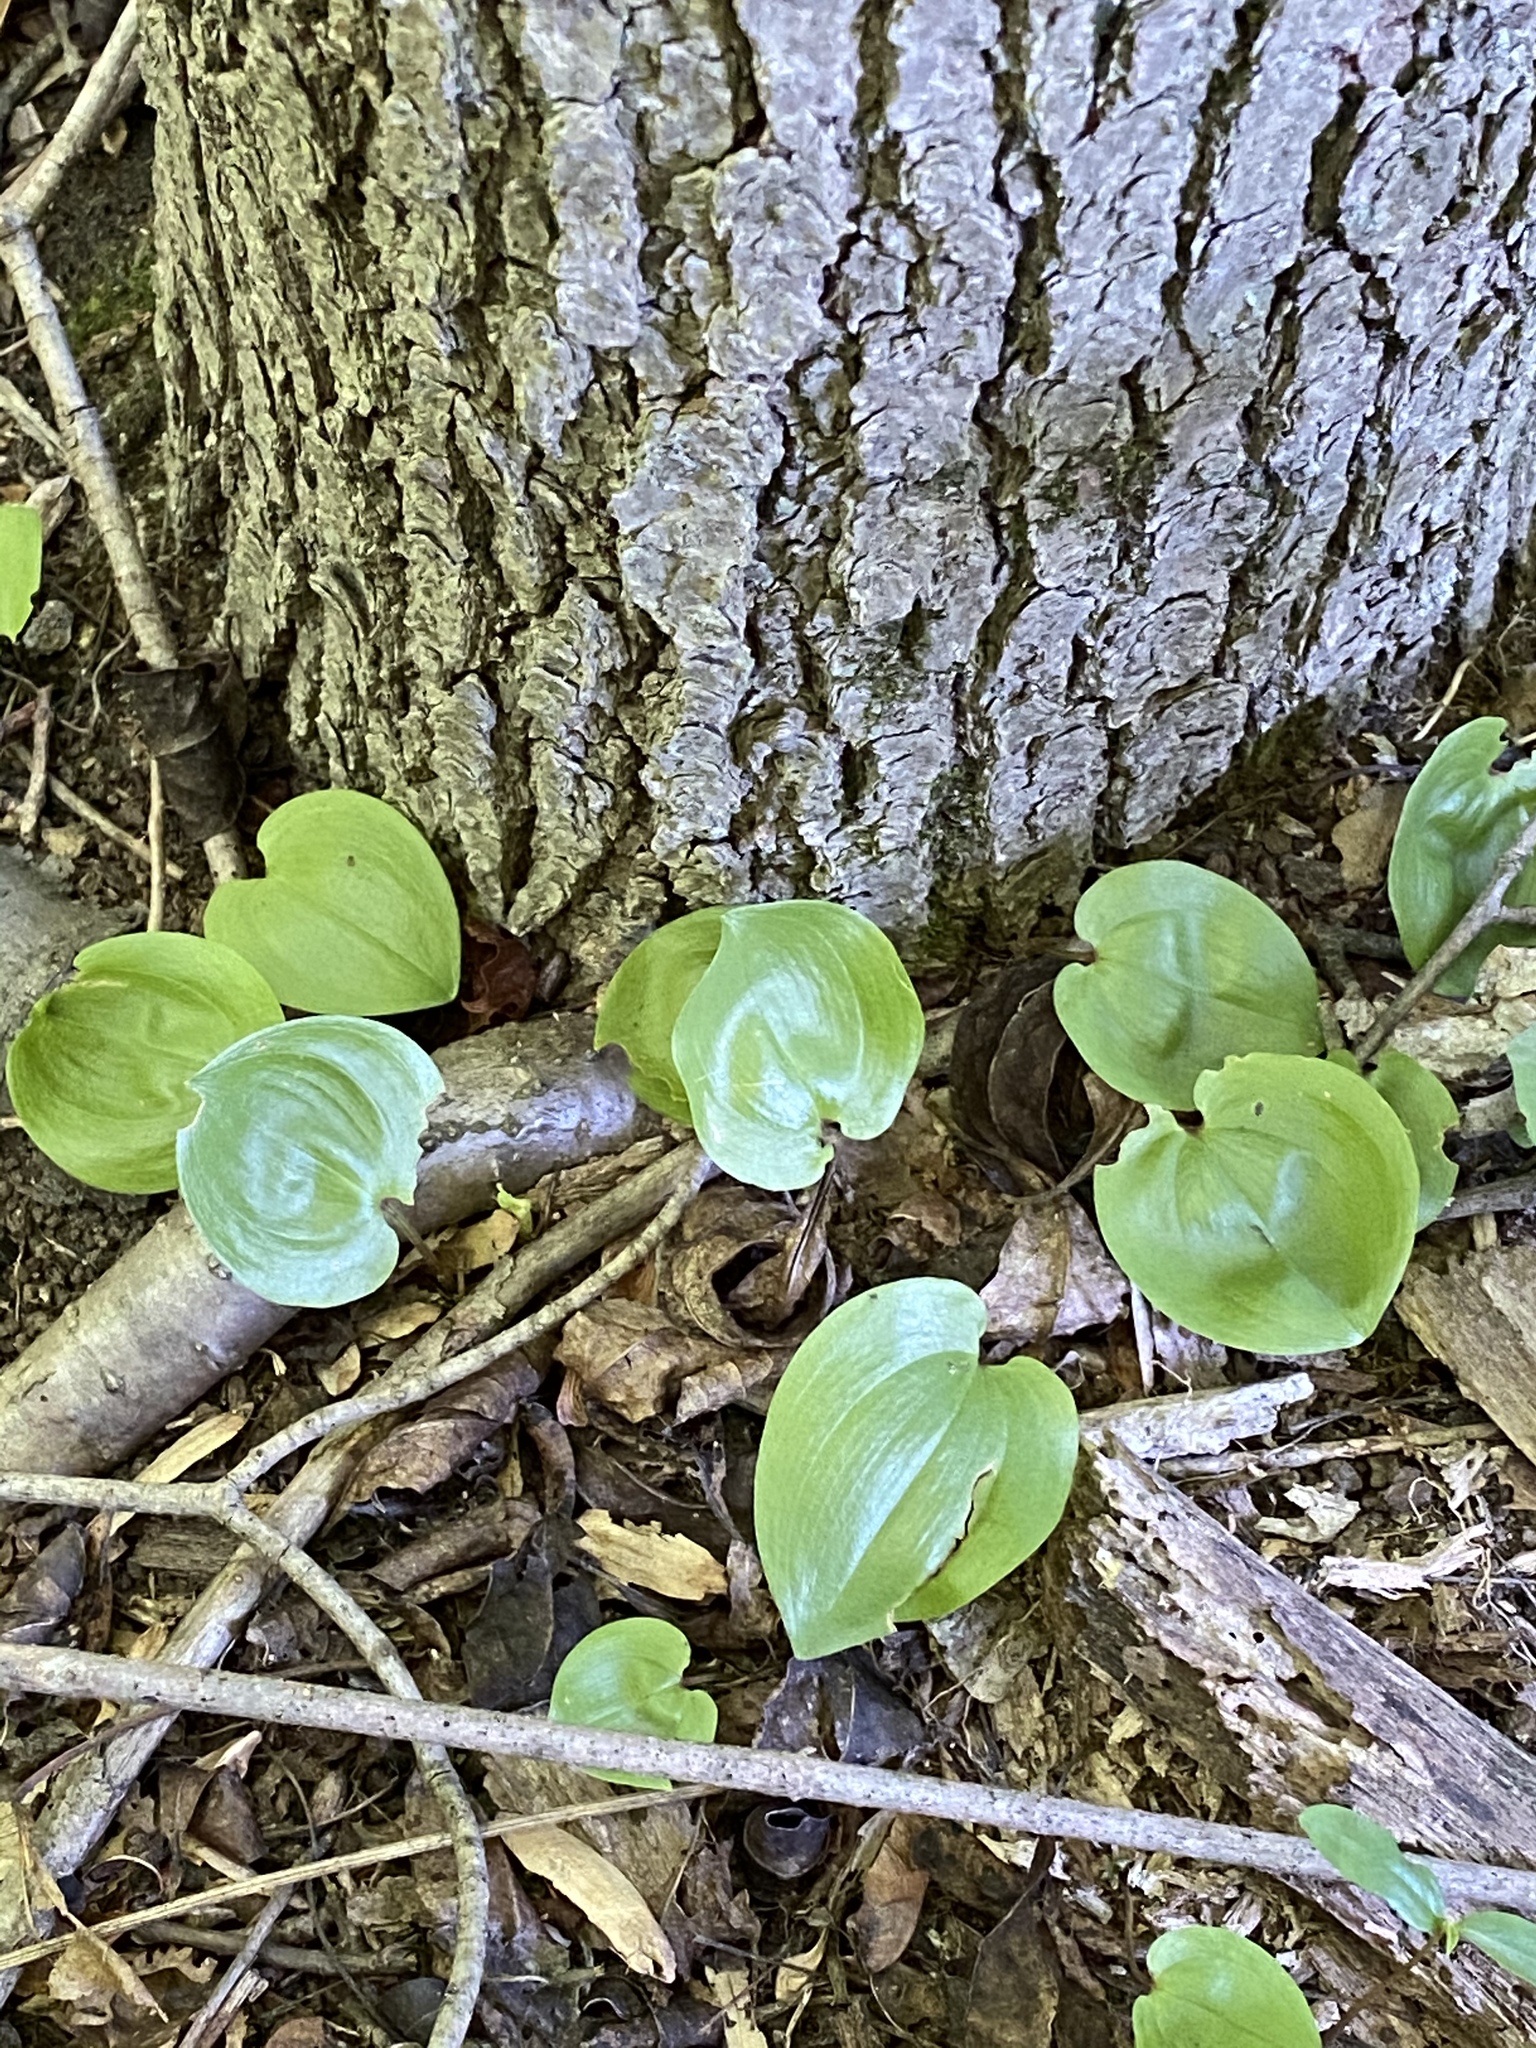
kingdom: Plantae
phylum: Tracheophyta
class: Liliopsida
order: Asparagales
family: Asparagaceae
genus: Maianthemum
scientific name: Maianthemum canadense
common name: False lily-of-the-valley
